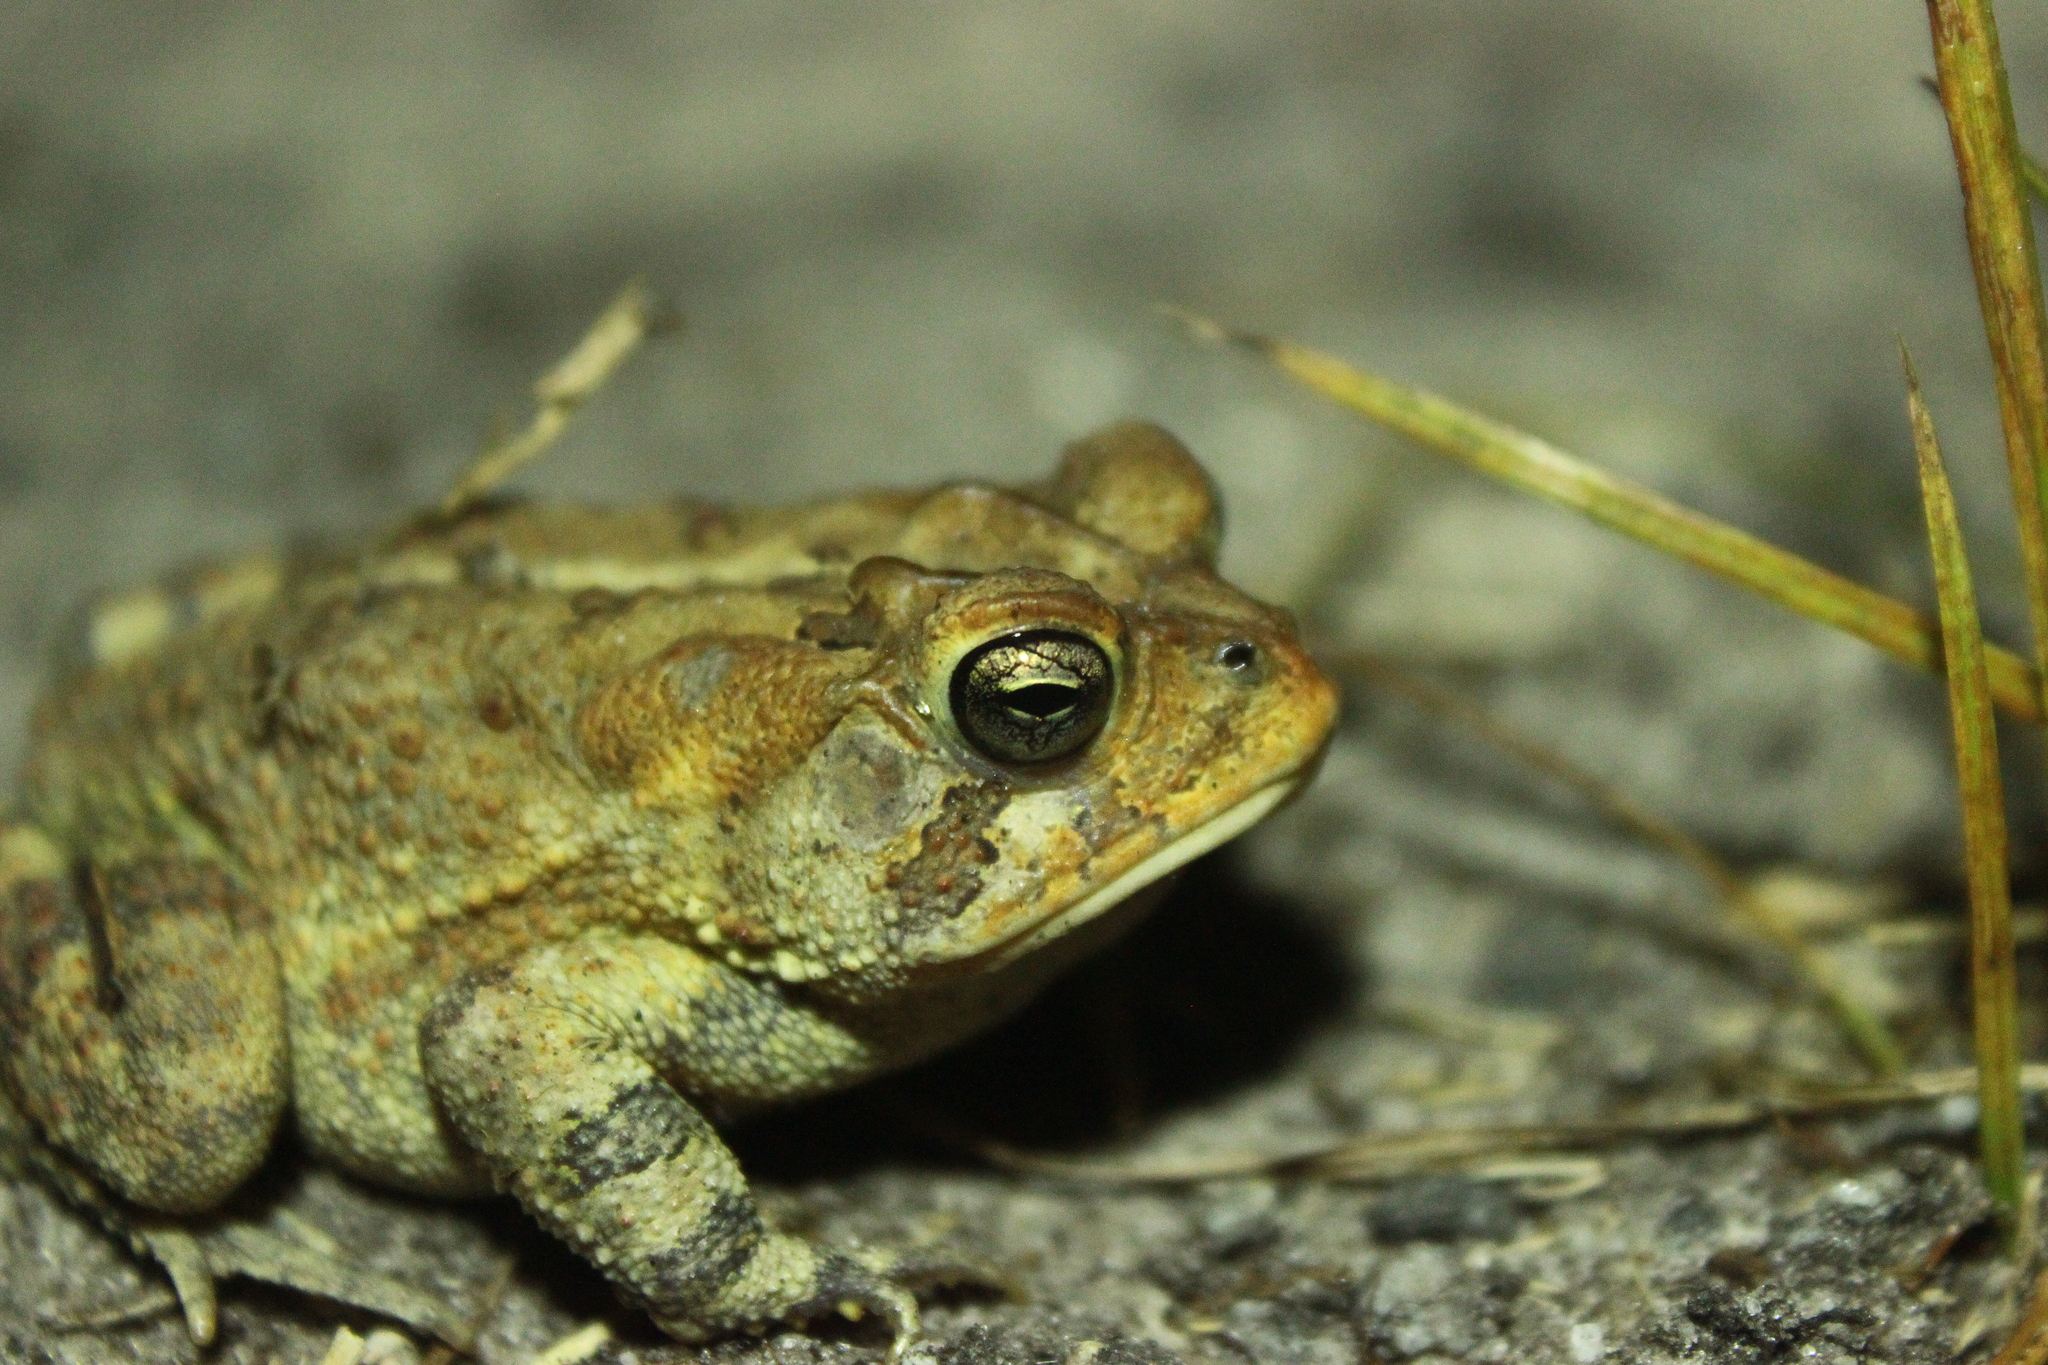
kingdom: Animalia
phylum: Chordata
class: Amphibia
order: Anura
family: Bufonidae
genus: Anaxyrus
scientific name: Anaxyrus terrestris
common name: Southern toad
